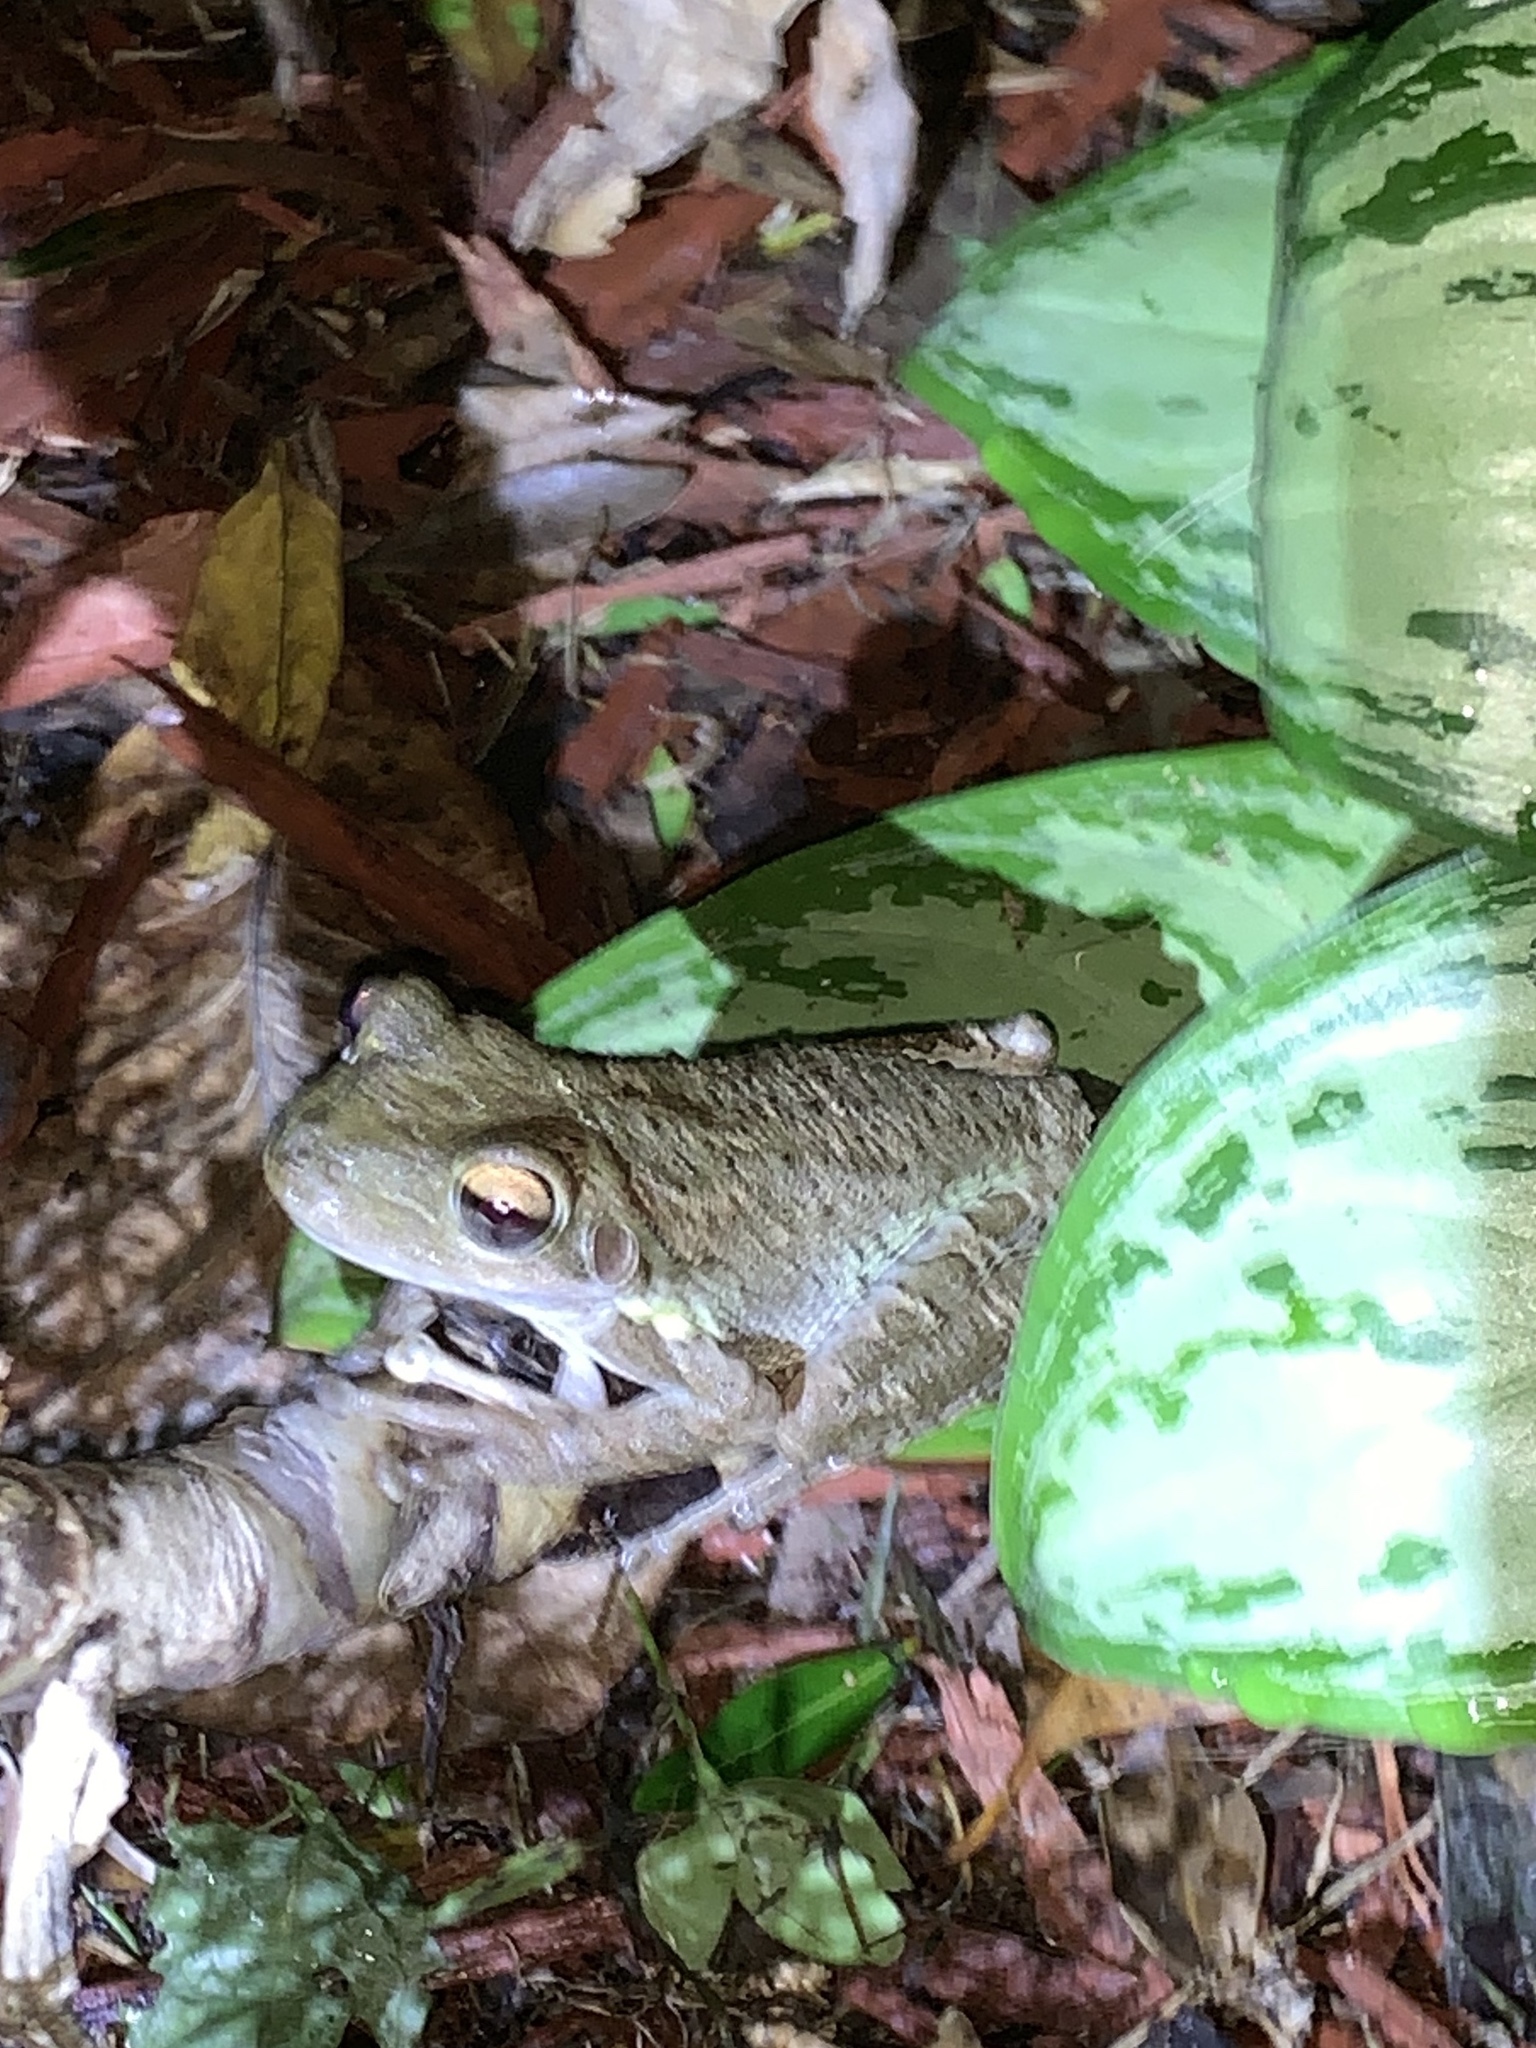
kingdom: Animalia
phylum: Chordata
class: Amphibia
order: Anura
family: Hylidae
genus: Osteopilus
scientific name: Osteopilus septentrionalis
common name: Cuban treefrog
